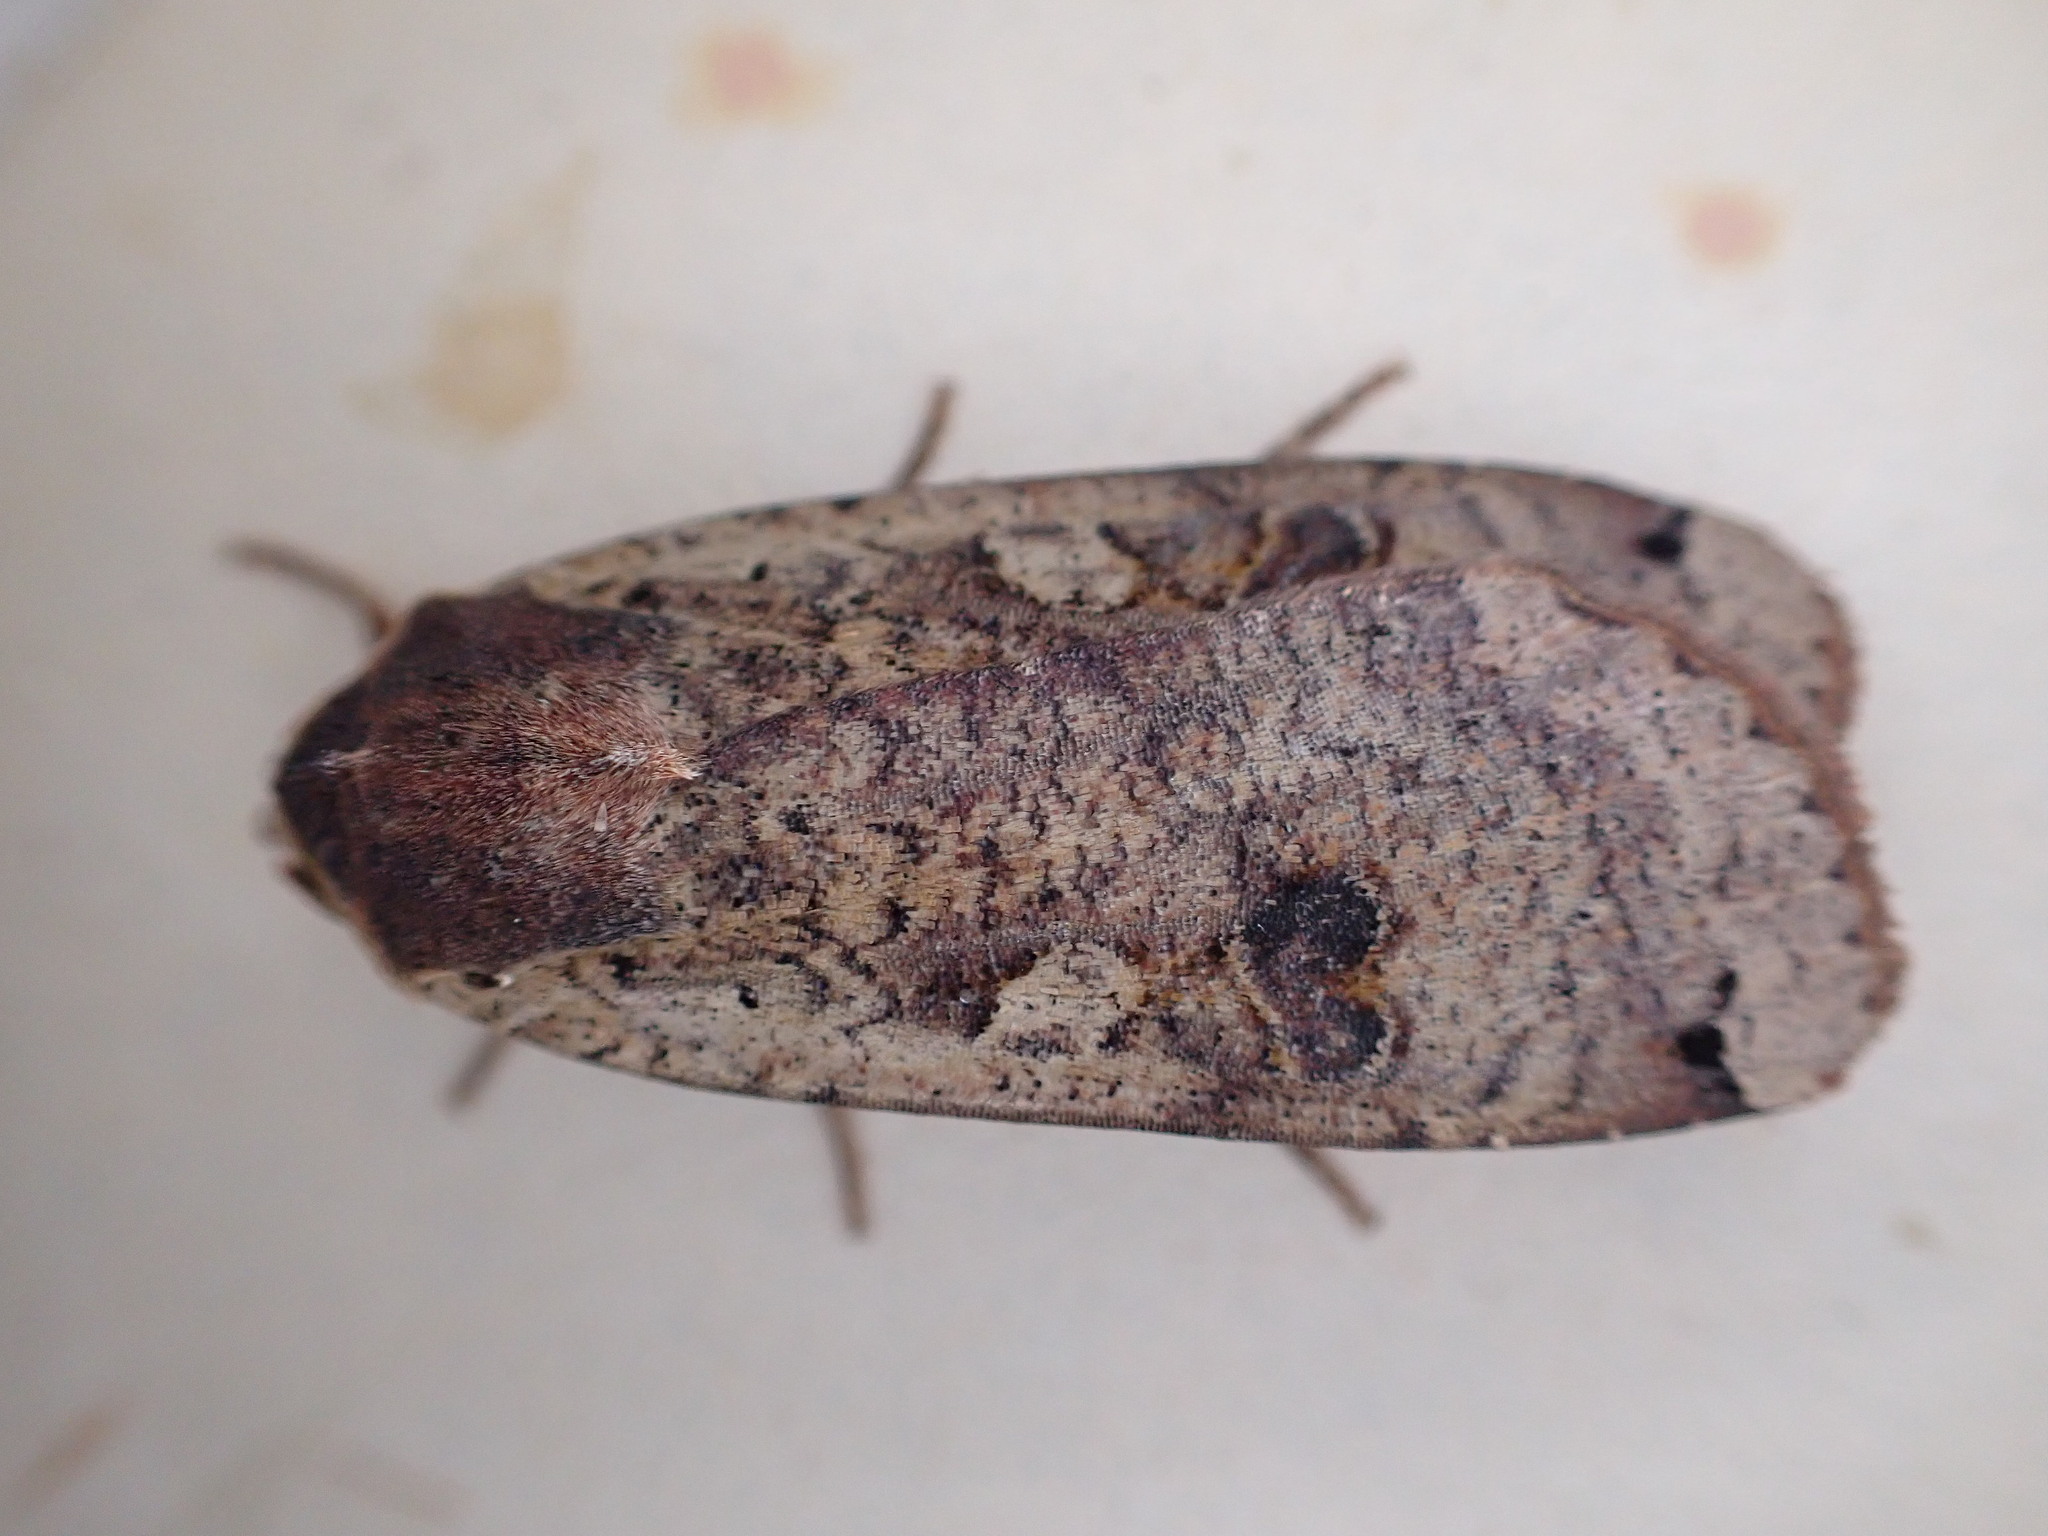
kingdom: Animalia
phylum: Arthropoda
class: Insecta
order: Lepidoptera
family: Noctuidae
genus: Noctua
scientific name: Noctua pronuba
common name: Large yellow underwing
